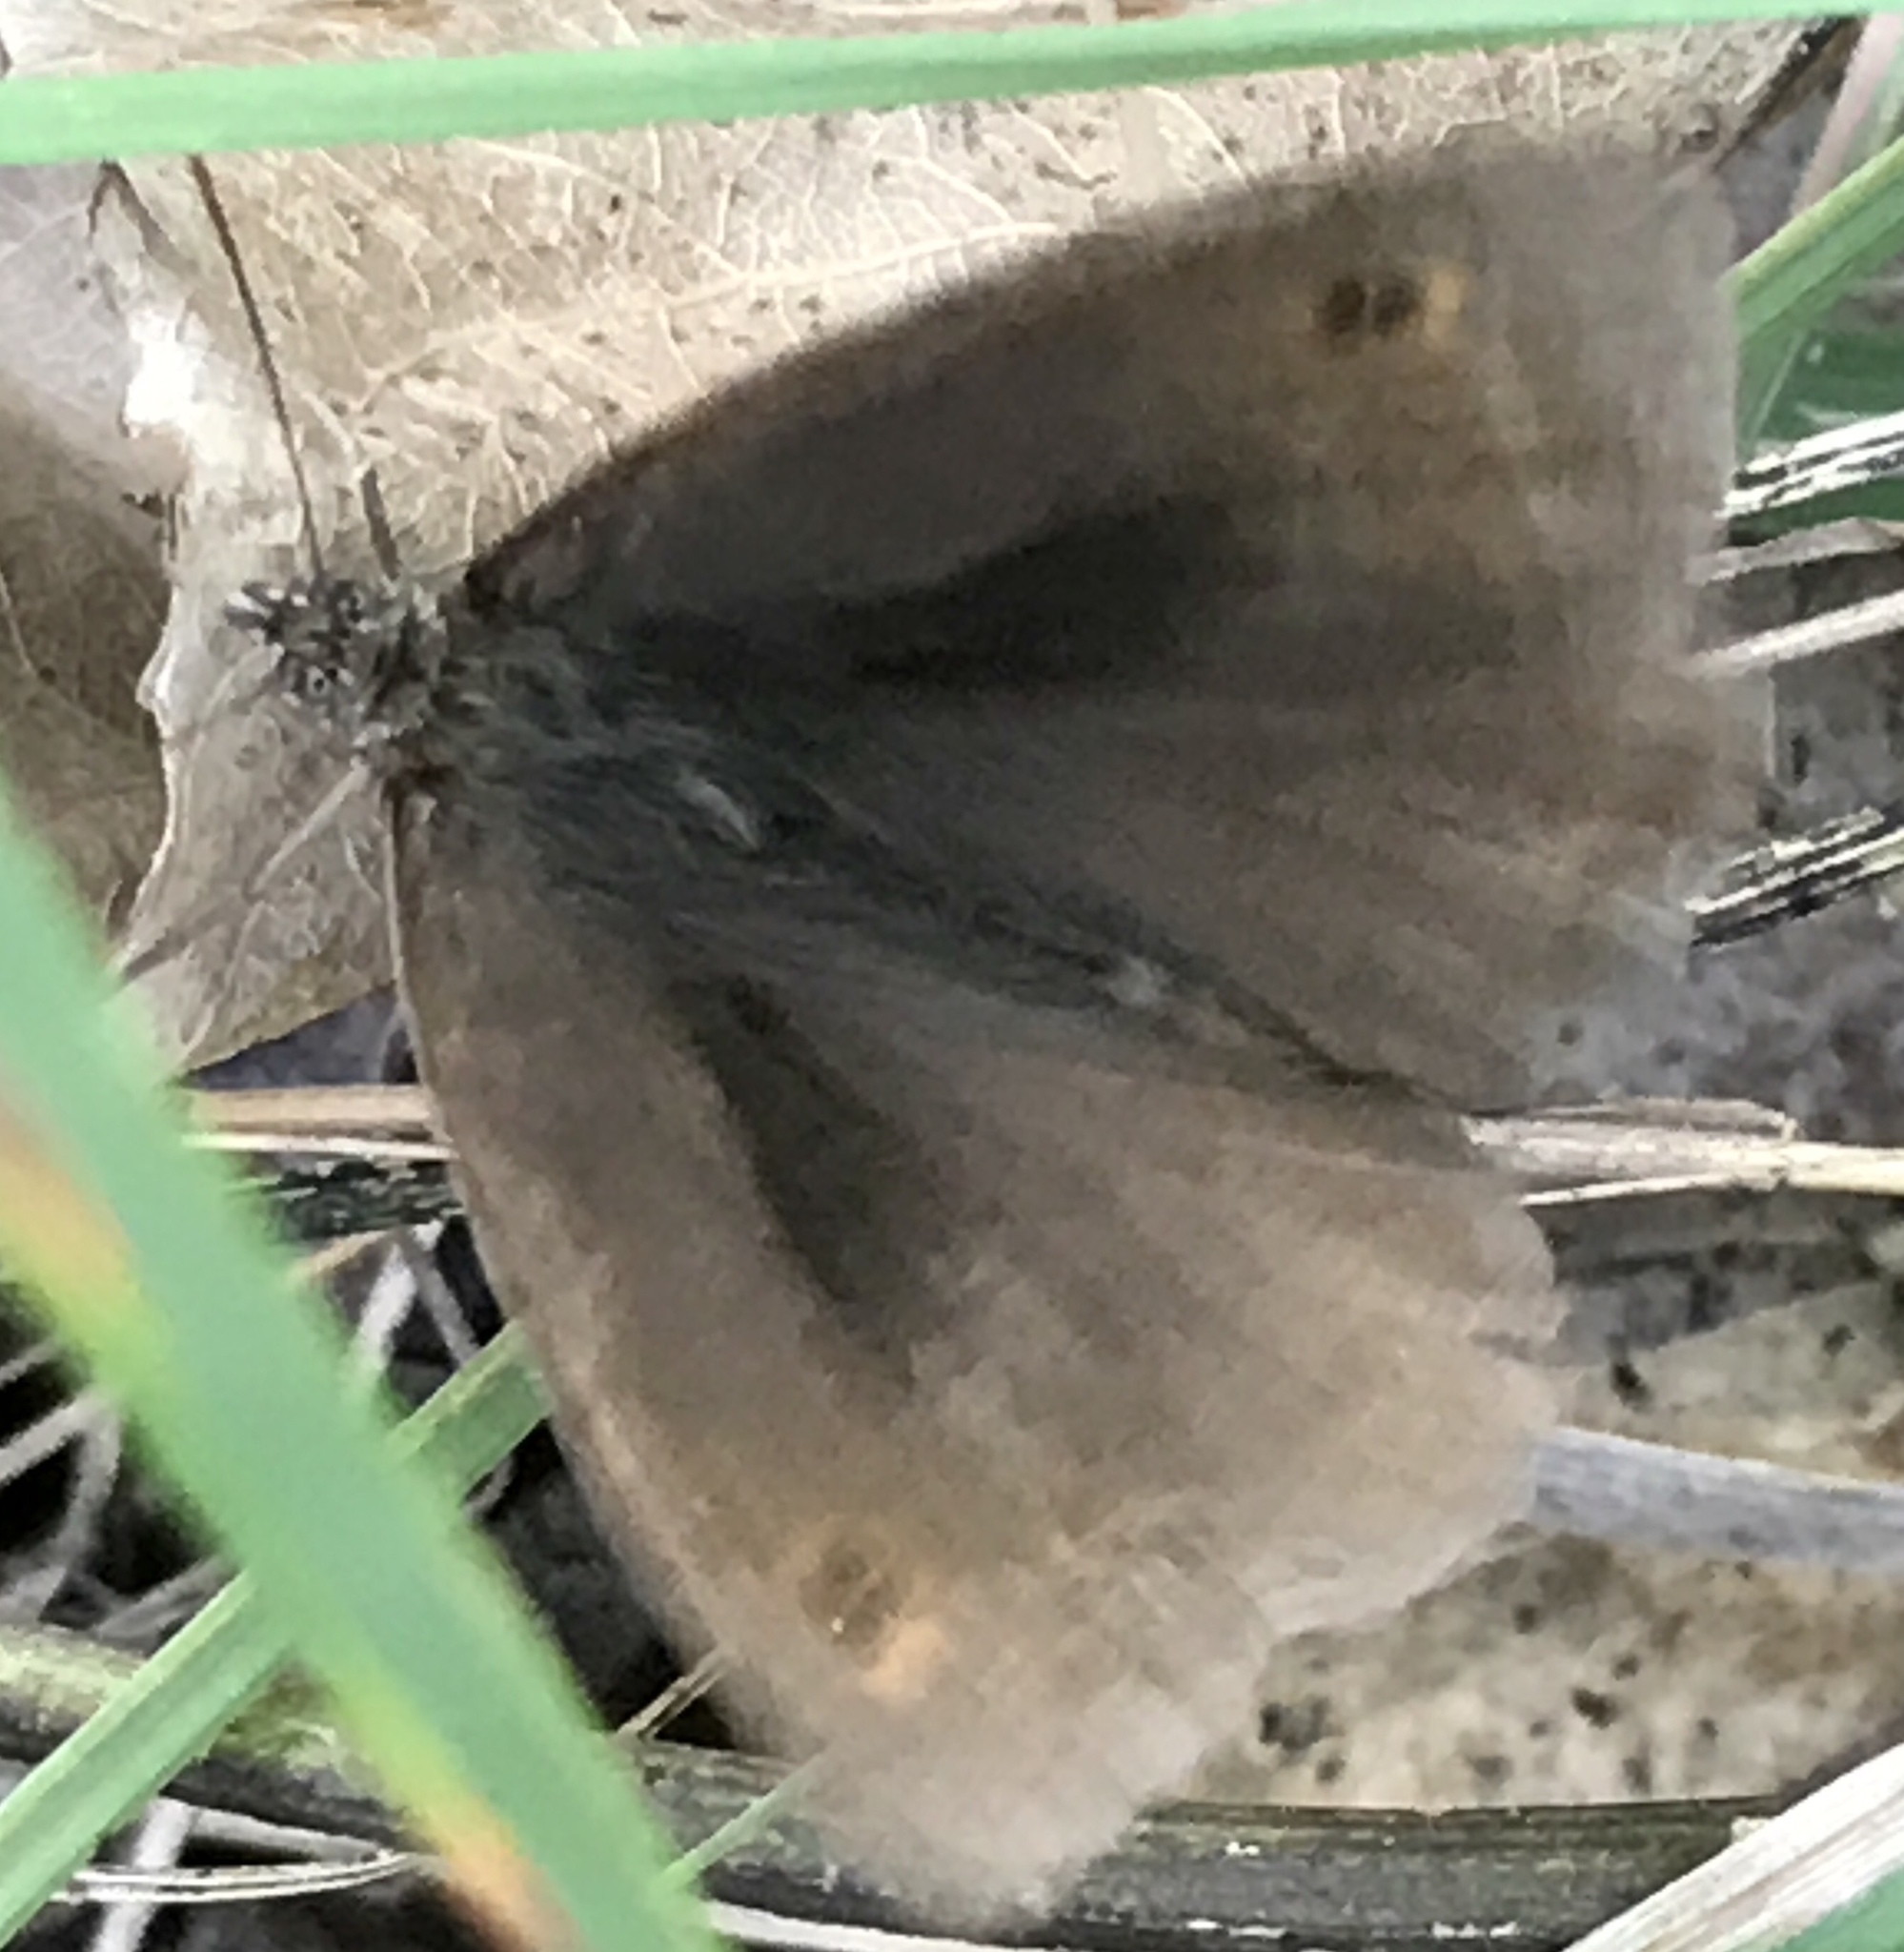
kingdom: Animalia
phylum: Arthropoda
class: Insecta
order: Lepidoptera
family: Nymphalidae
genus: Maniola
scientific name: Maniola jurtina
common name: Meadow brown
